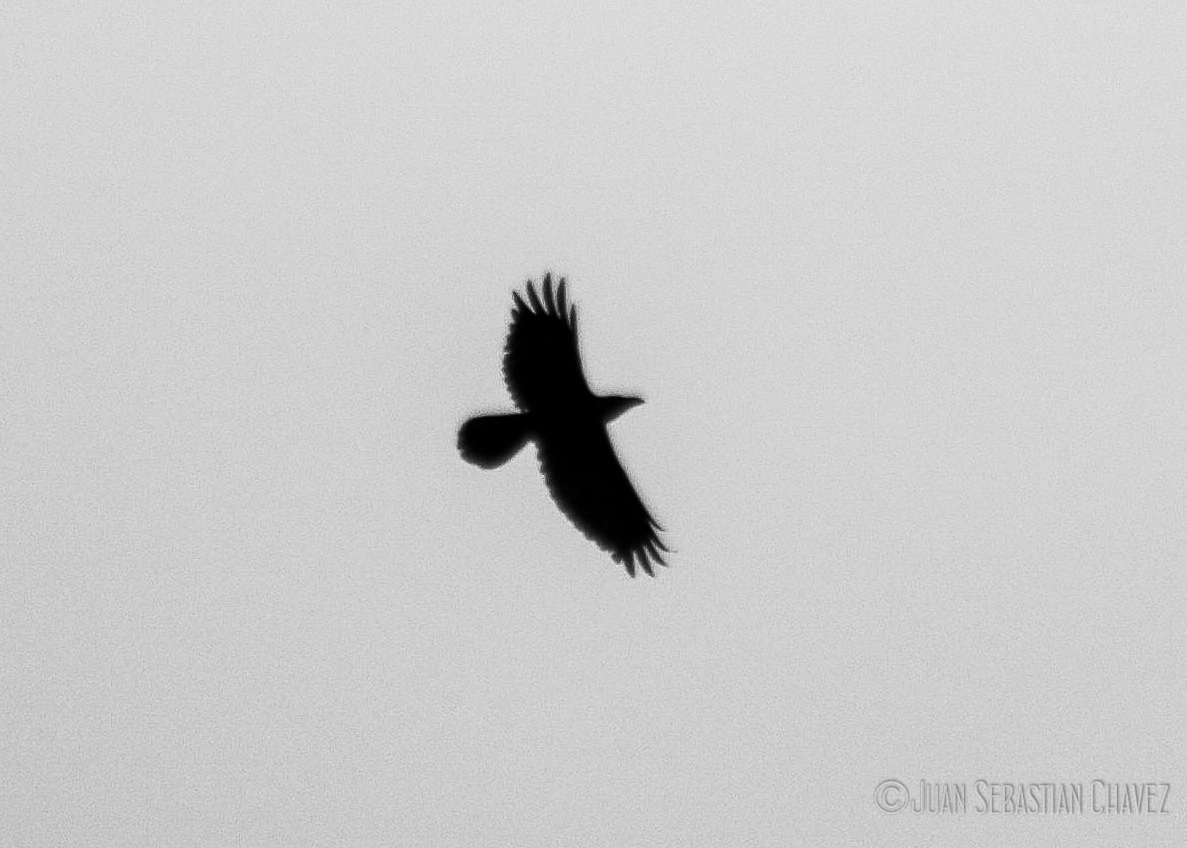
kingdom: Animalia
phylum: Chordata
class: Aves
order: Passeriformes
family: Corvidae
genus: Corvus
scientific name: Corvus cryptoleucus
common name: Chihuahuan raven
